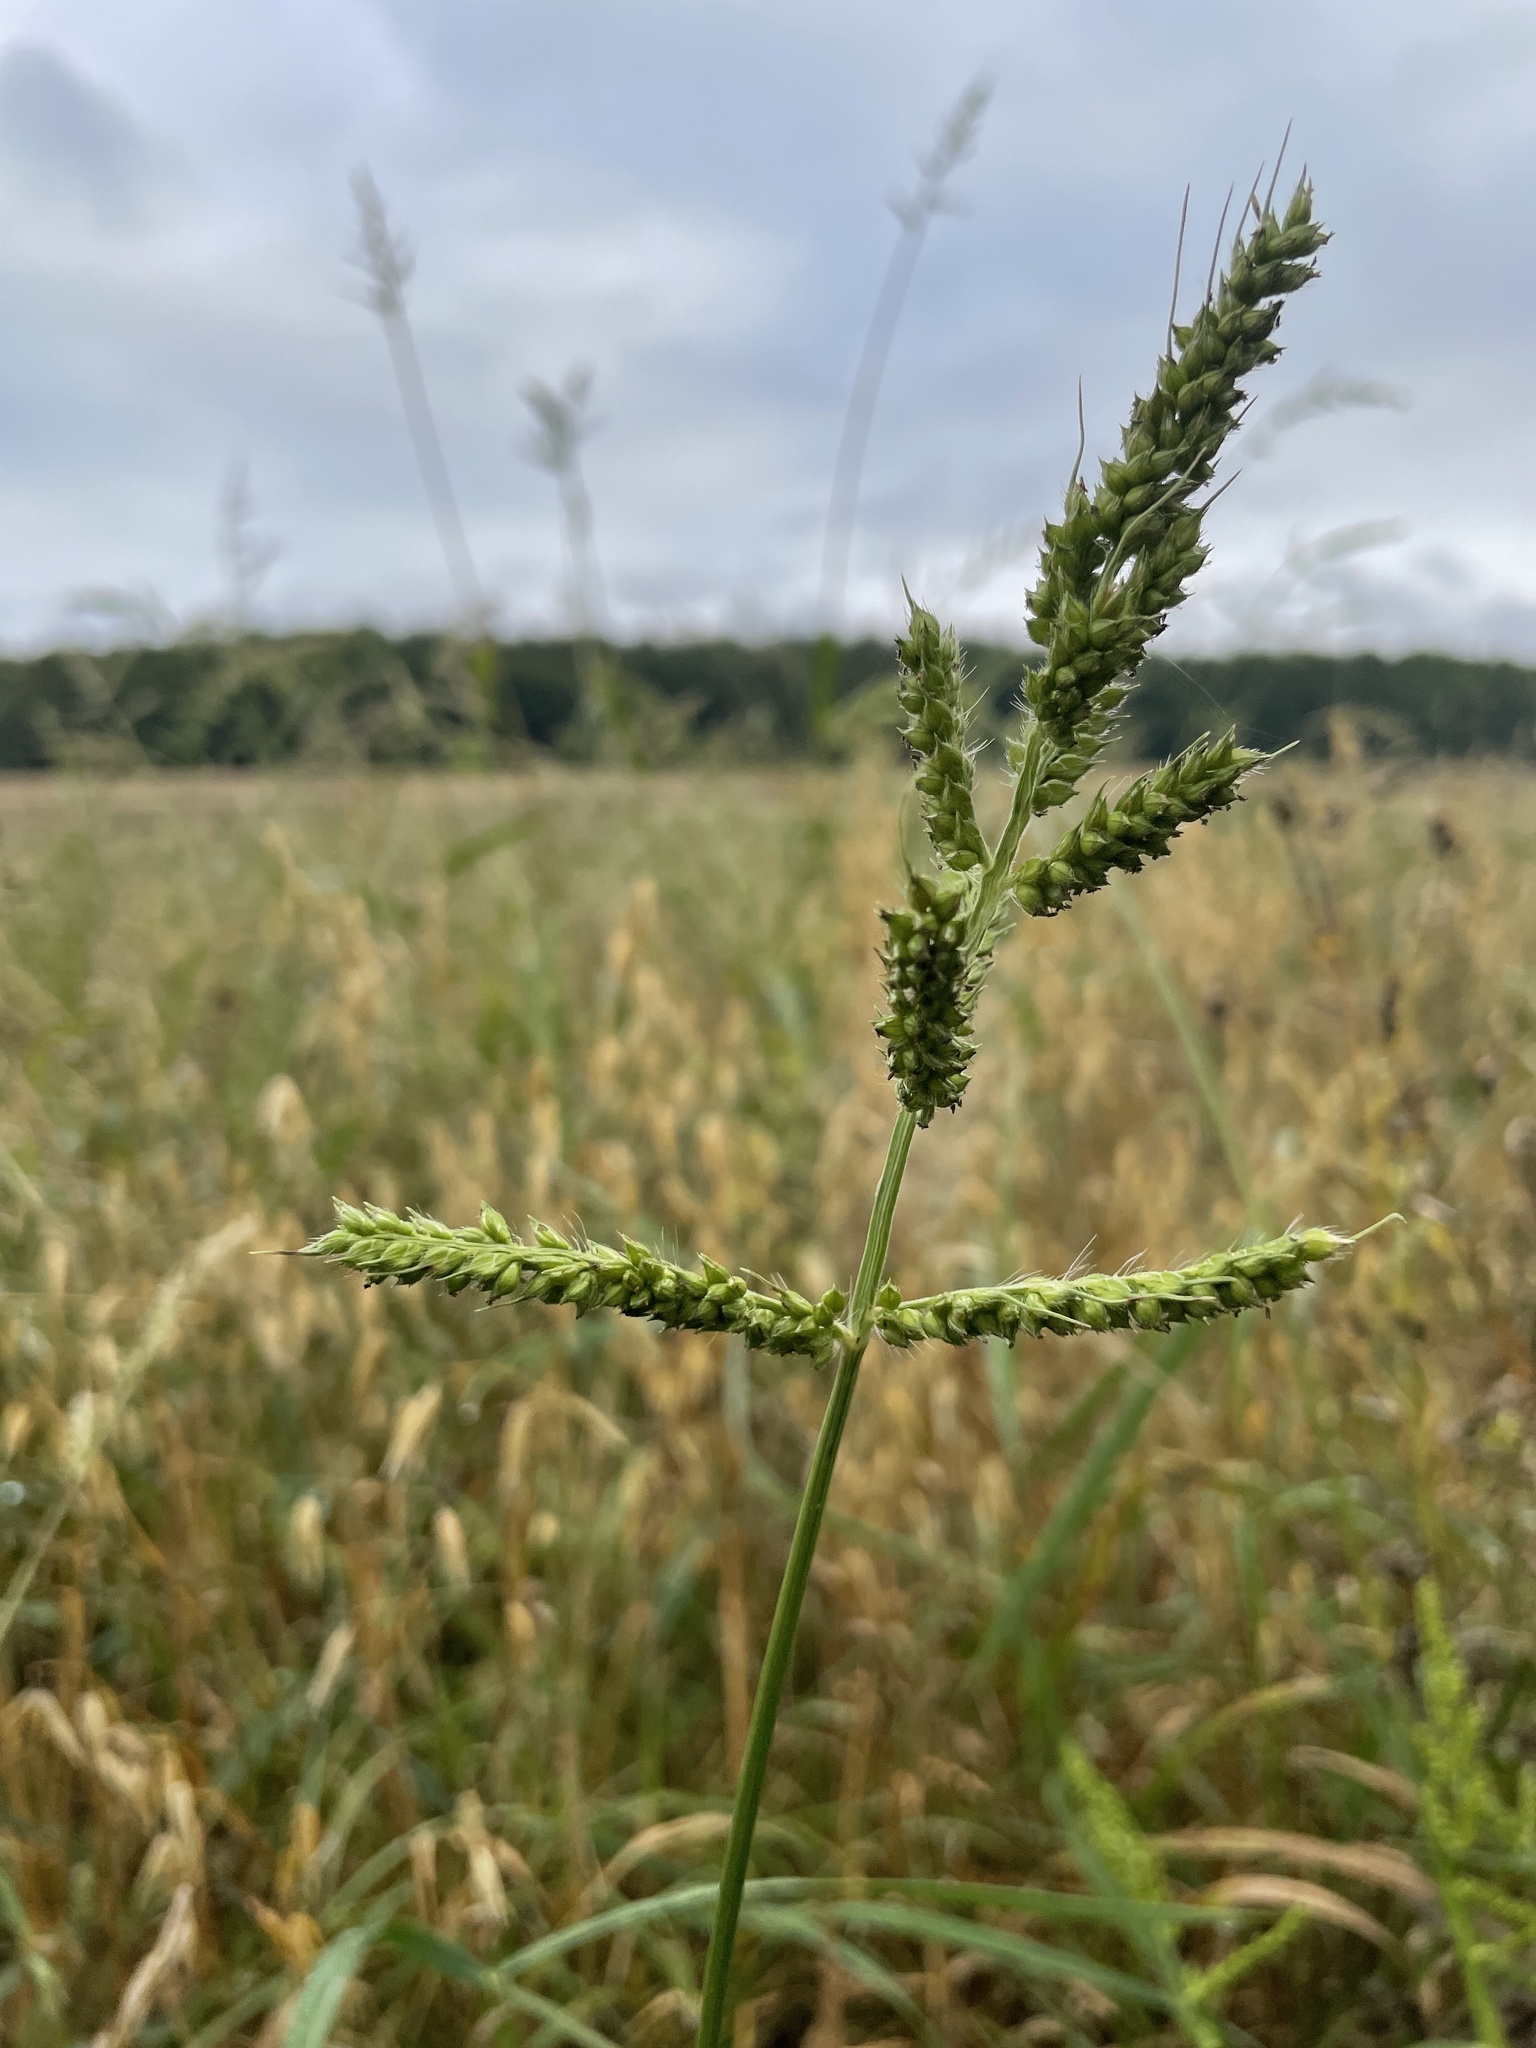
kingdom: Plantae
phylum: Tracheophyta
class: Liliopsida
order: Poales
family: Poaceae
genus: Echinochloa
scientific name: Echinochloa crus-galli
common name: Cockspur
